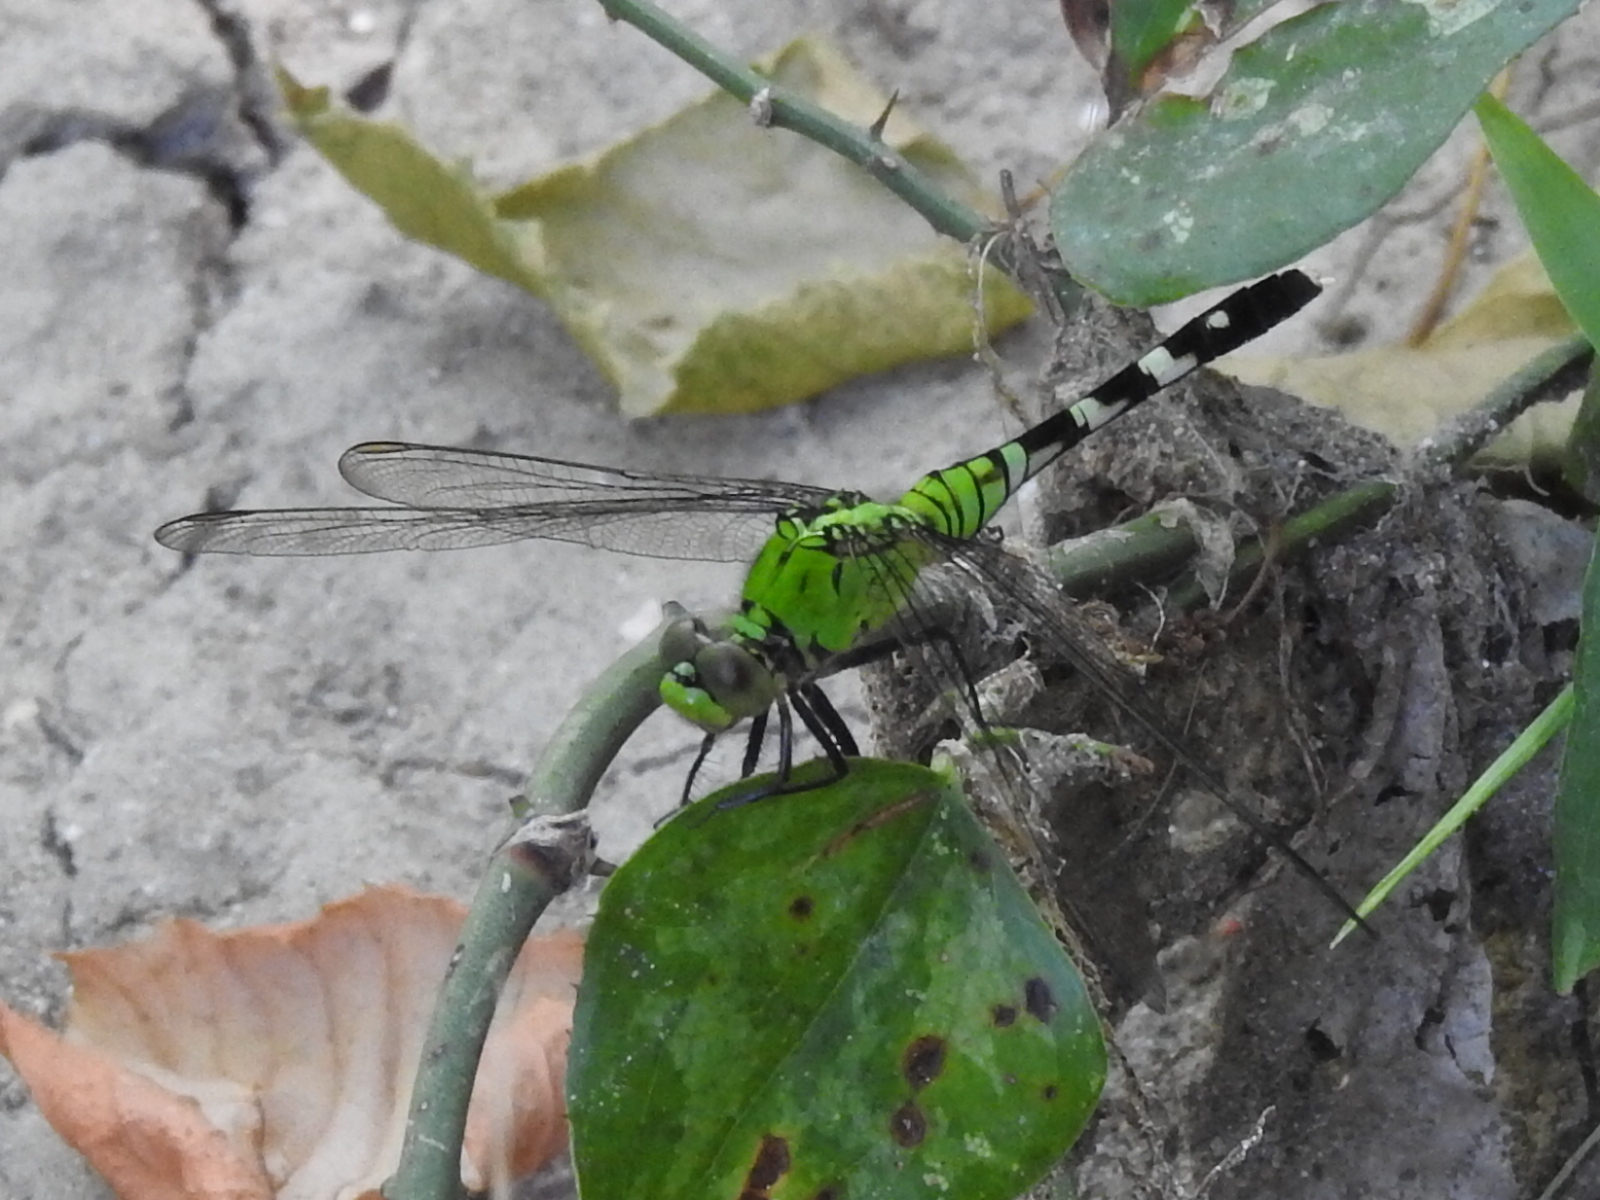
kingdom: Animalia
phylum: Arthropoda
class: Insecta
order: Odonata
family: Libellulidae
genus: Erythemis
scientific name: Erythemis simplicicollis
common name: Eastern pondhawk
